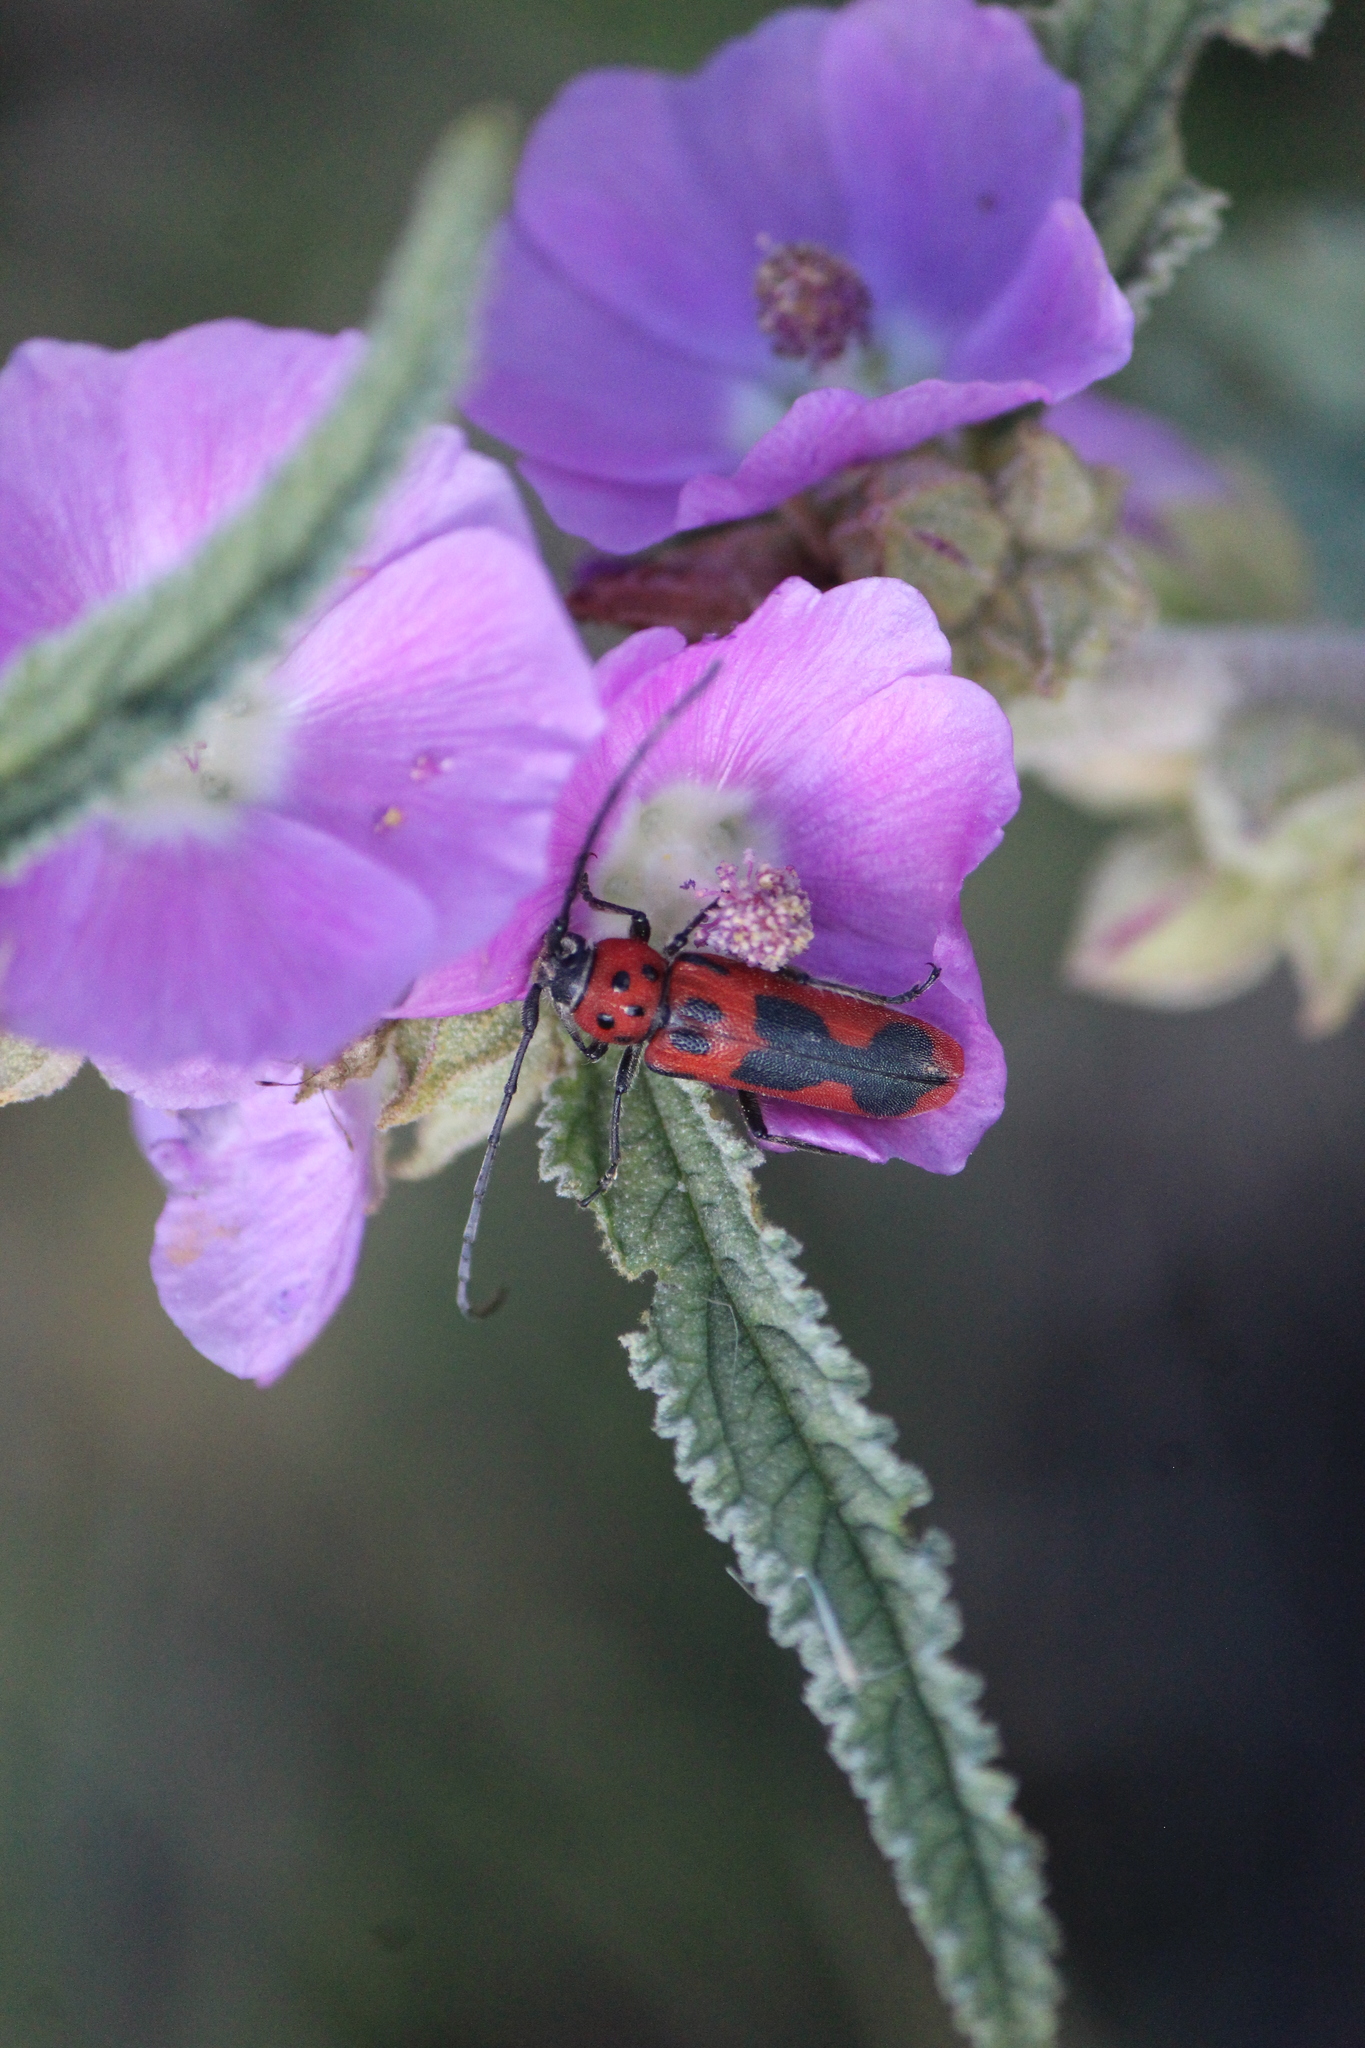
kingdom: Animalia
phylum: Arthropoda
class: Insecta
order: Coleoptera
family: Cerambycidae
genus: Tylosis
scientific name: Tylosis maculatus
